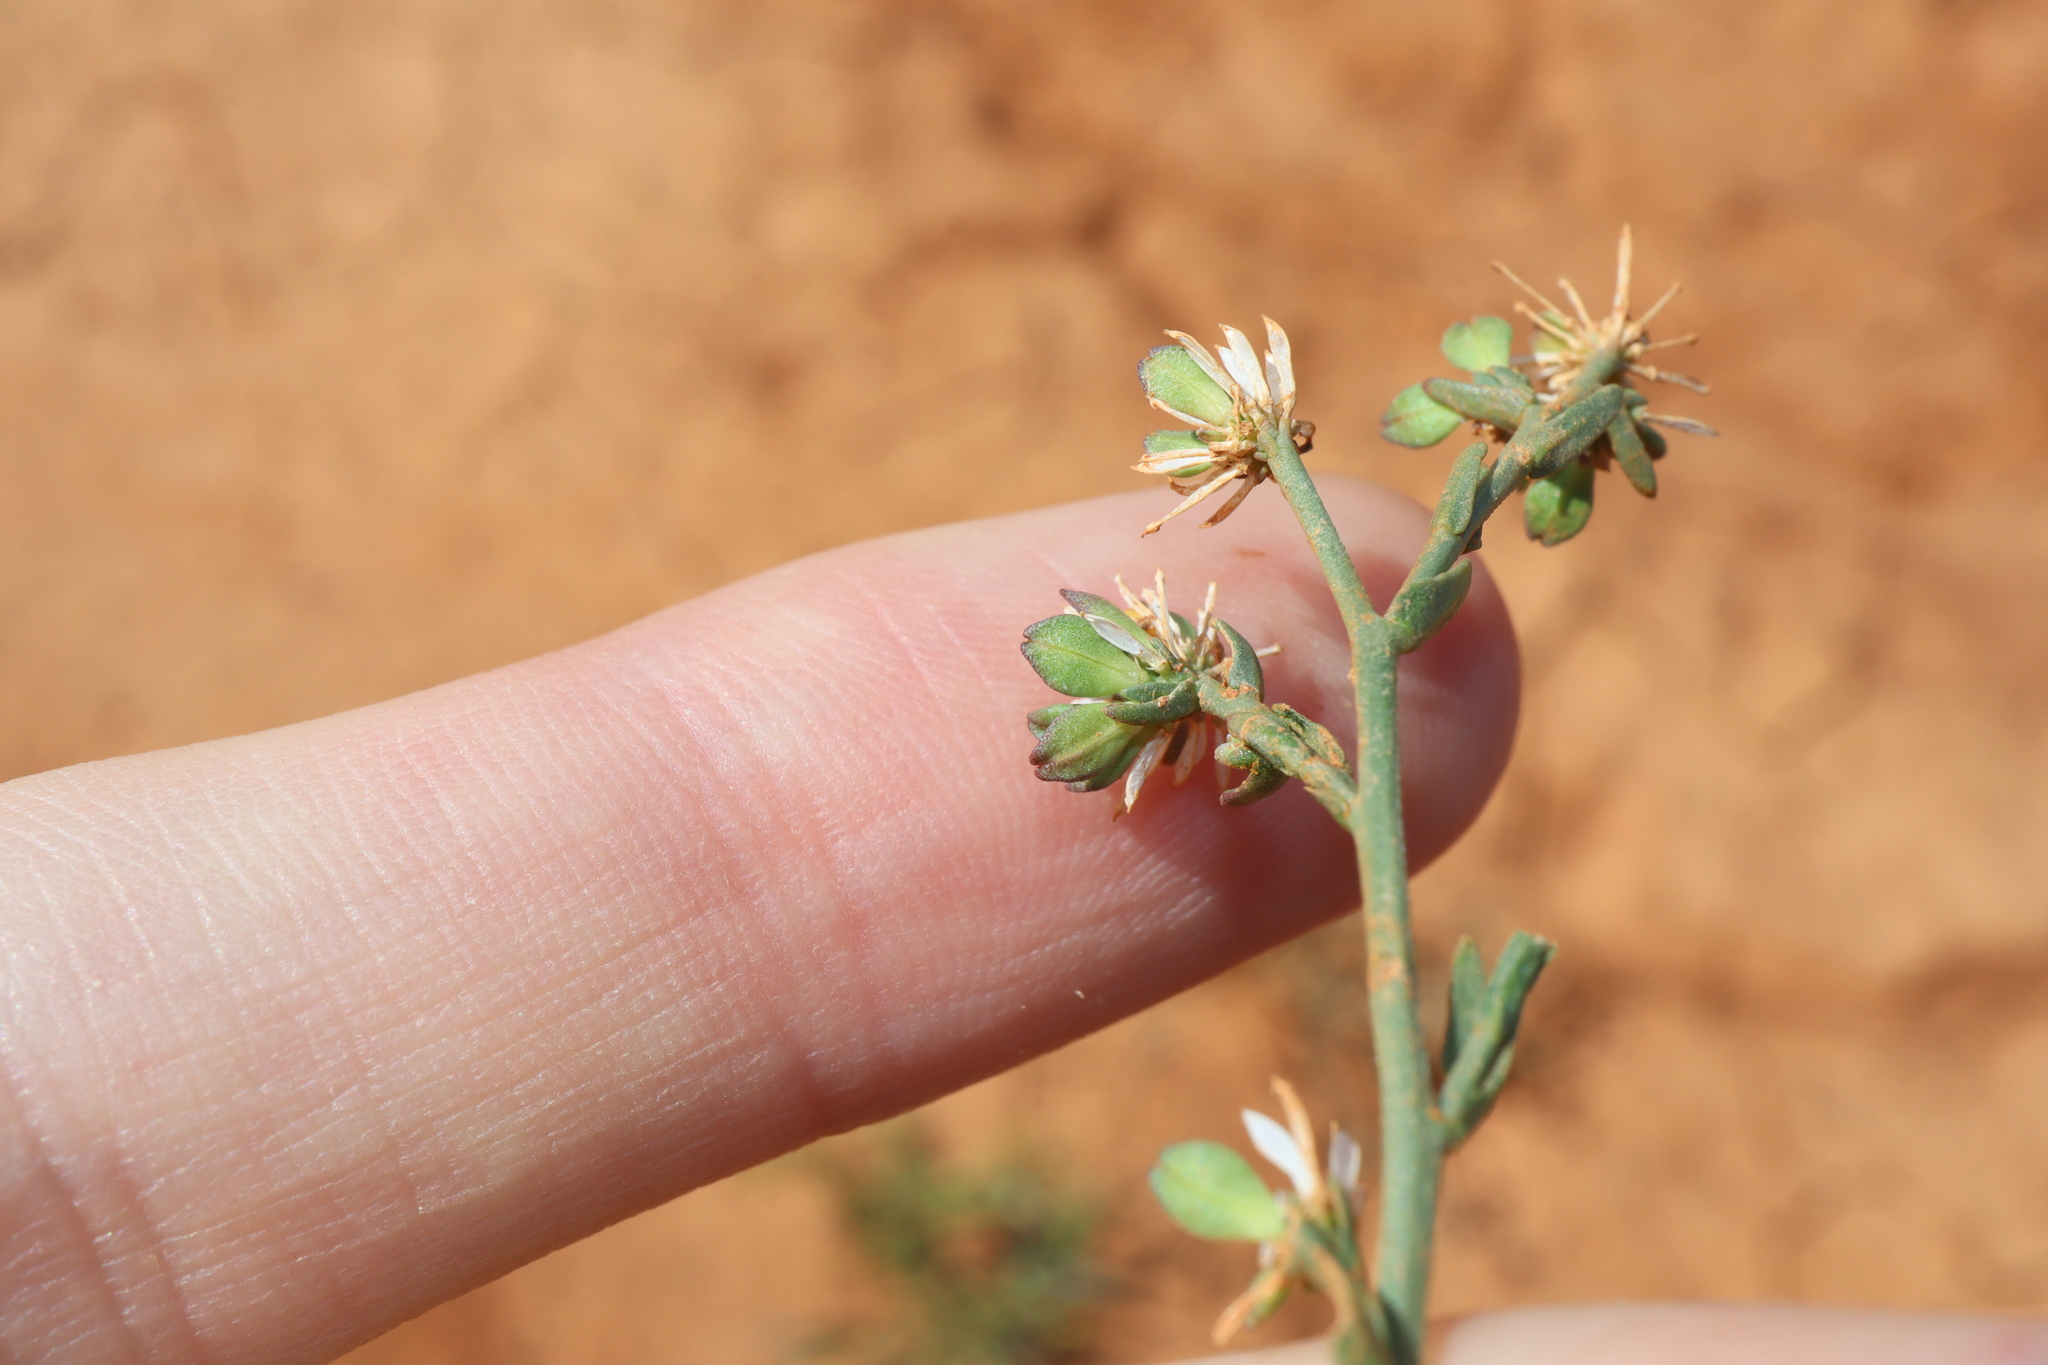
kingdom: Plantae
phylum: Tracheophyta
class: Magnoliopsida
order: Brassicales
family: Brassicaceae
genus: Lepidium
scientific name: Lepidium fasciculatum
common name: Bundled pepperwort
